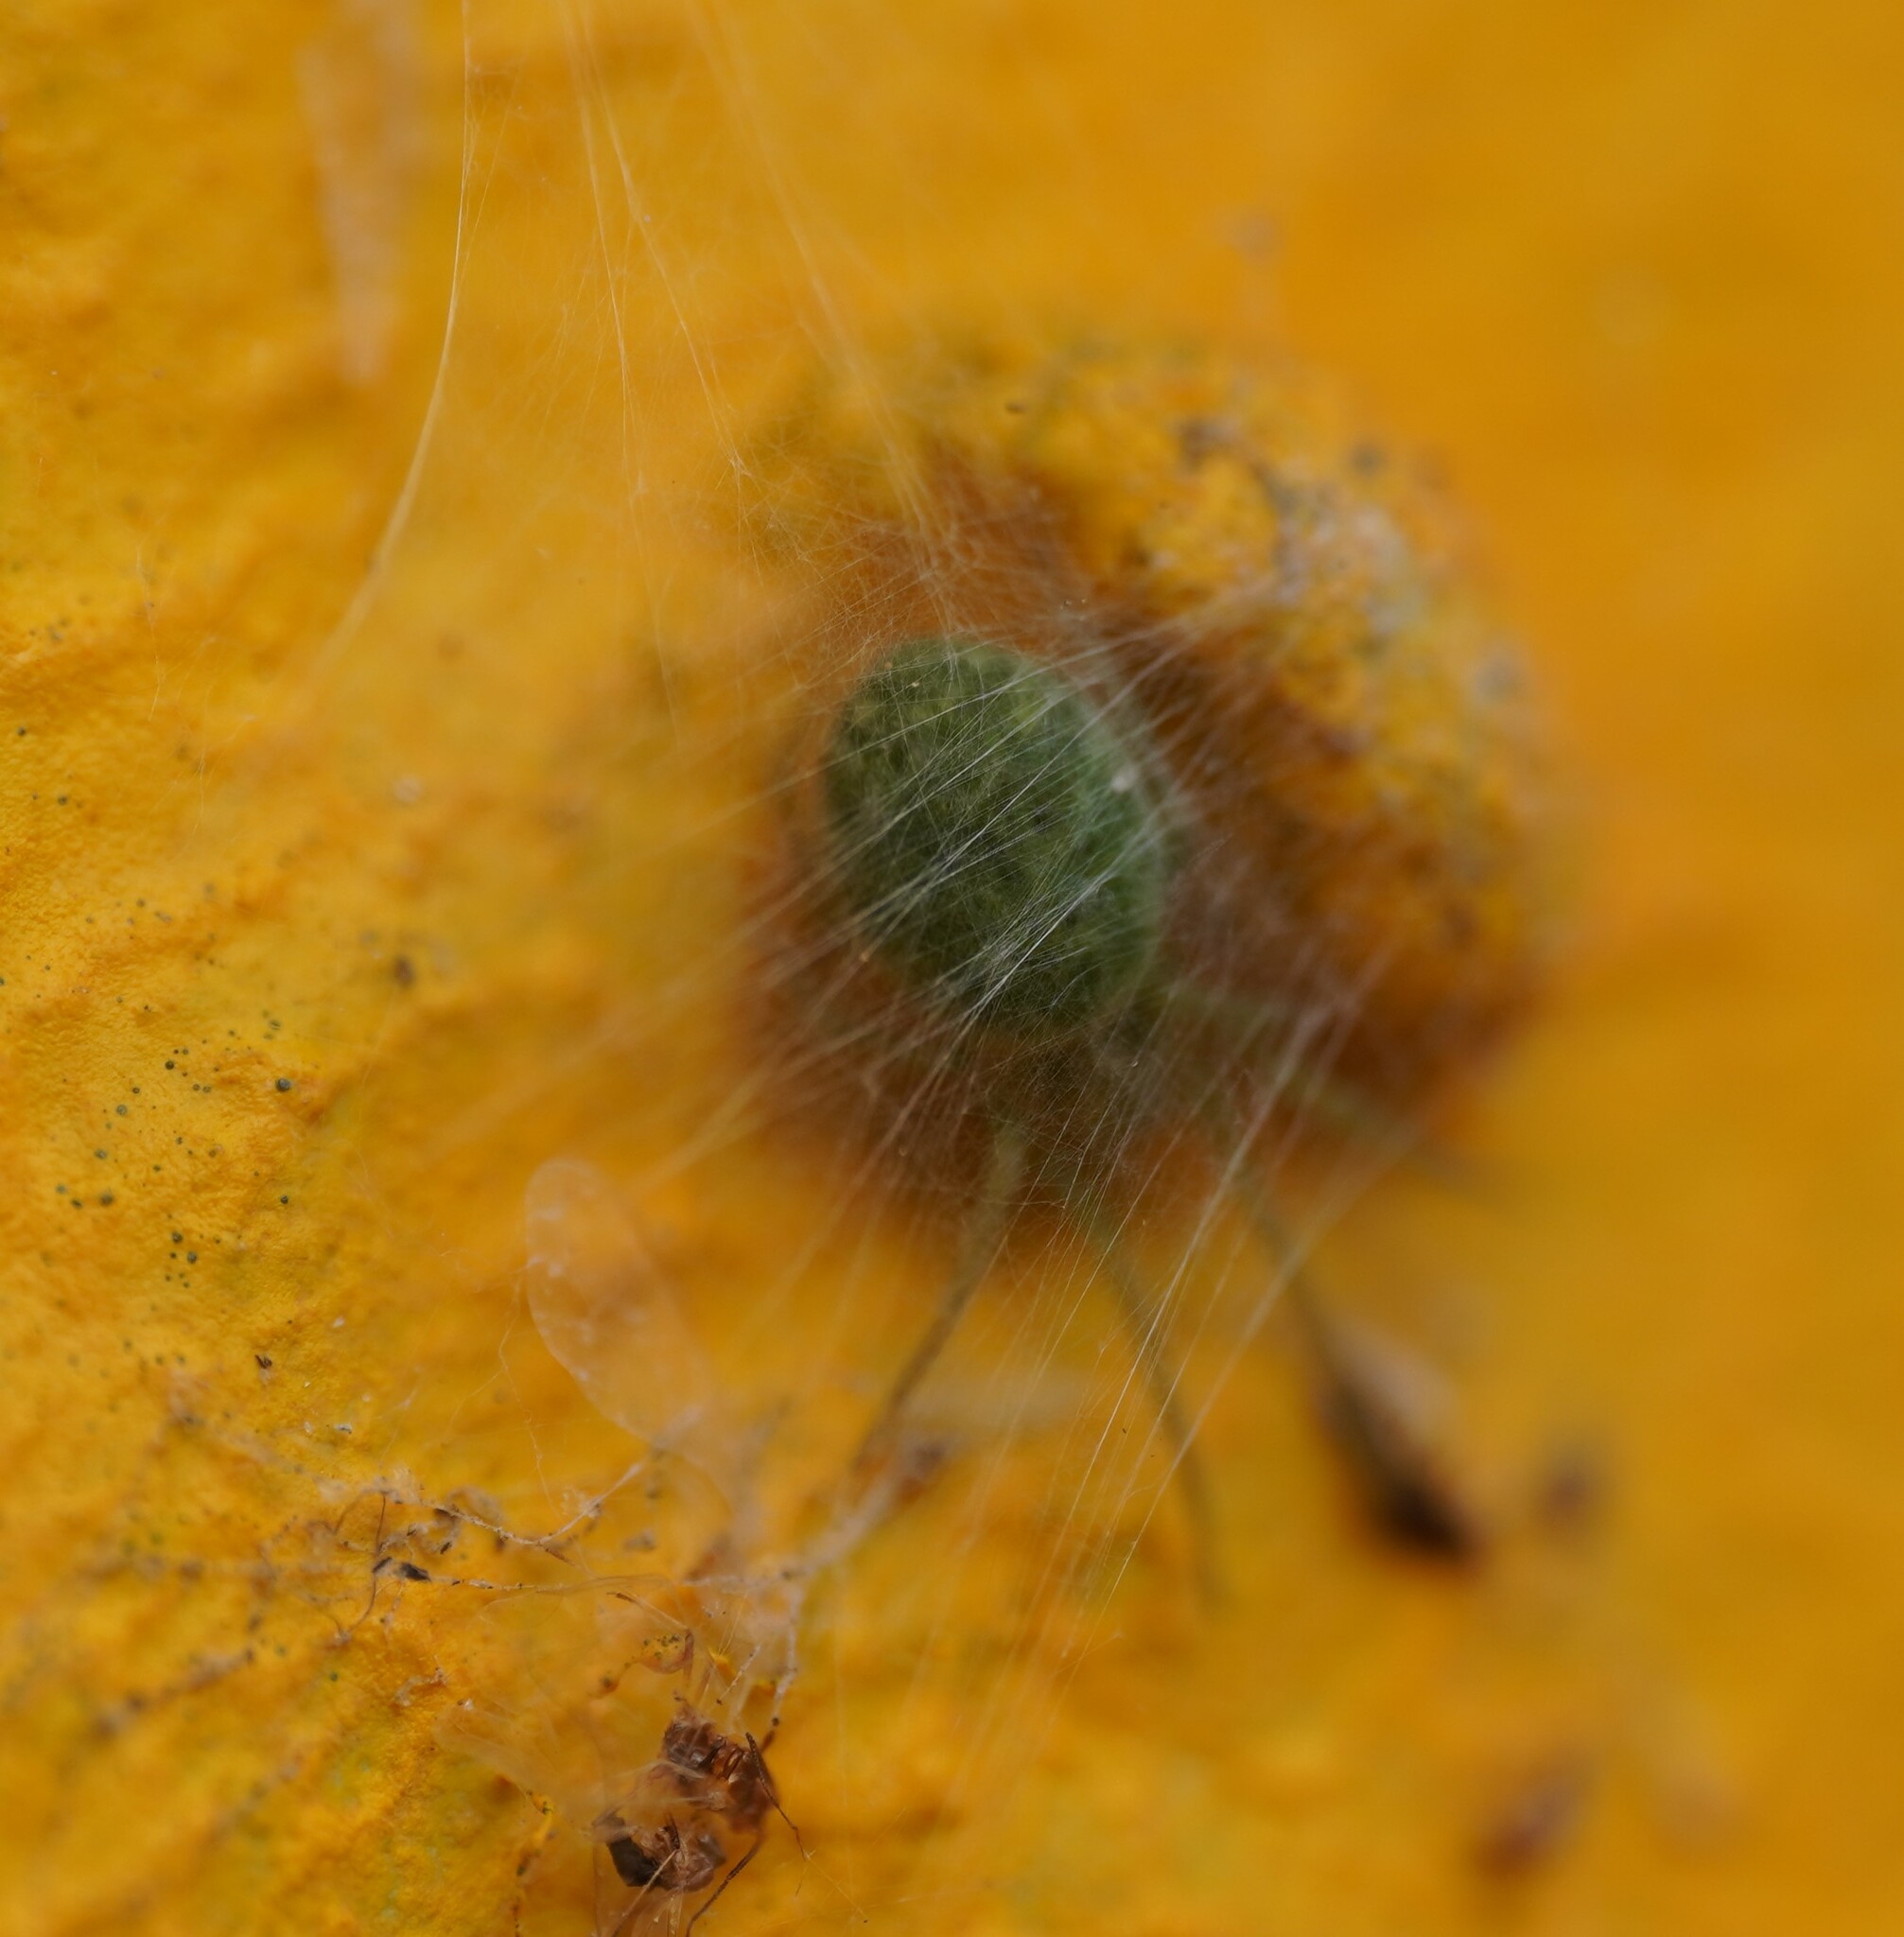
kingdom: Animalia
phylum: Arthropoda
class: Arachnida
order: Araneae
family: Dictynidae
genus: Nigma
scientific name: Nigma walckenaeri
